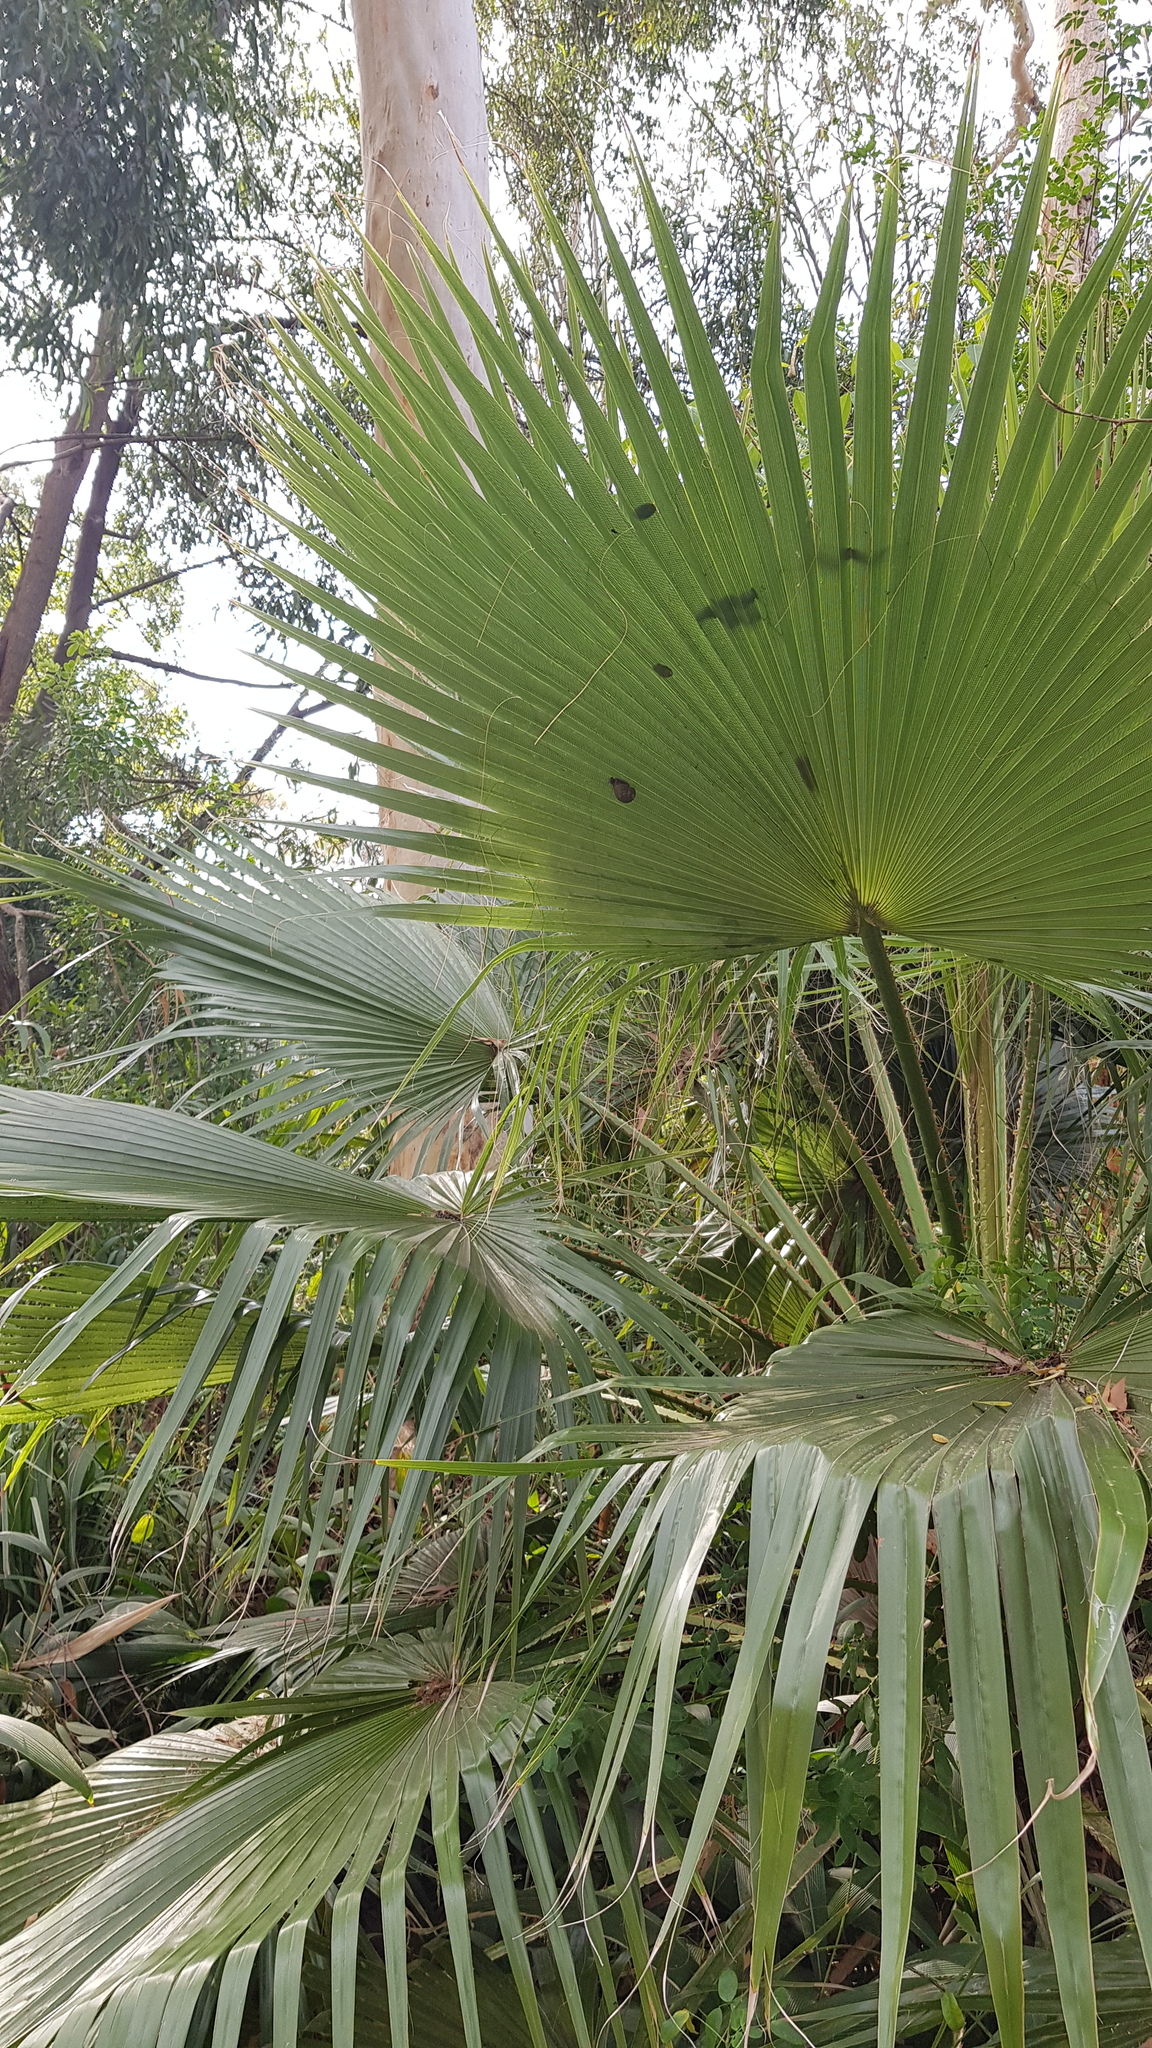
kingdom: Animalia
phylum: Mollusca
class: Gastropoda
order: Stylommatophora
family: Helicidae
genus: Cornu
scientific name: Cornu aspersum
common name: Brown garden snail
